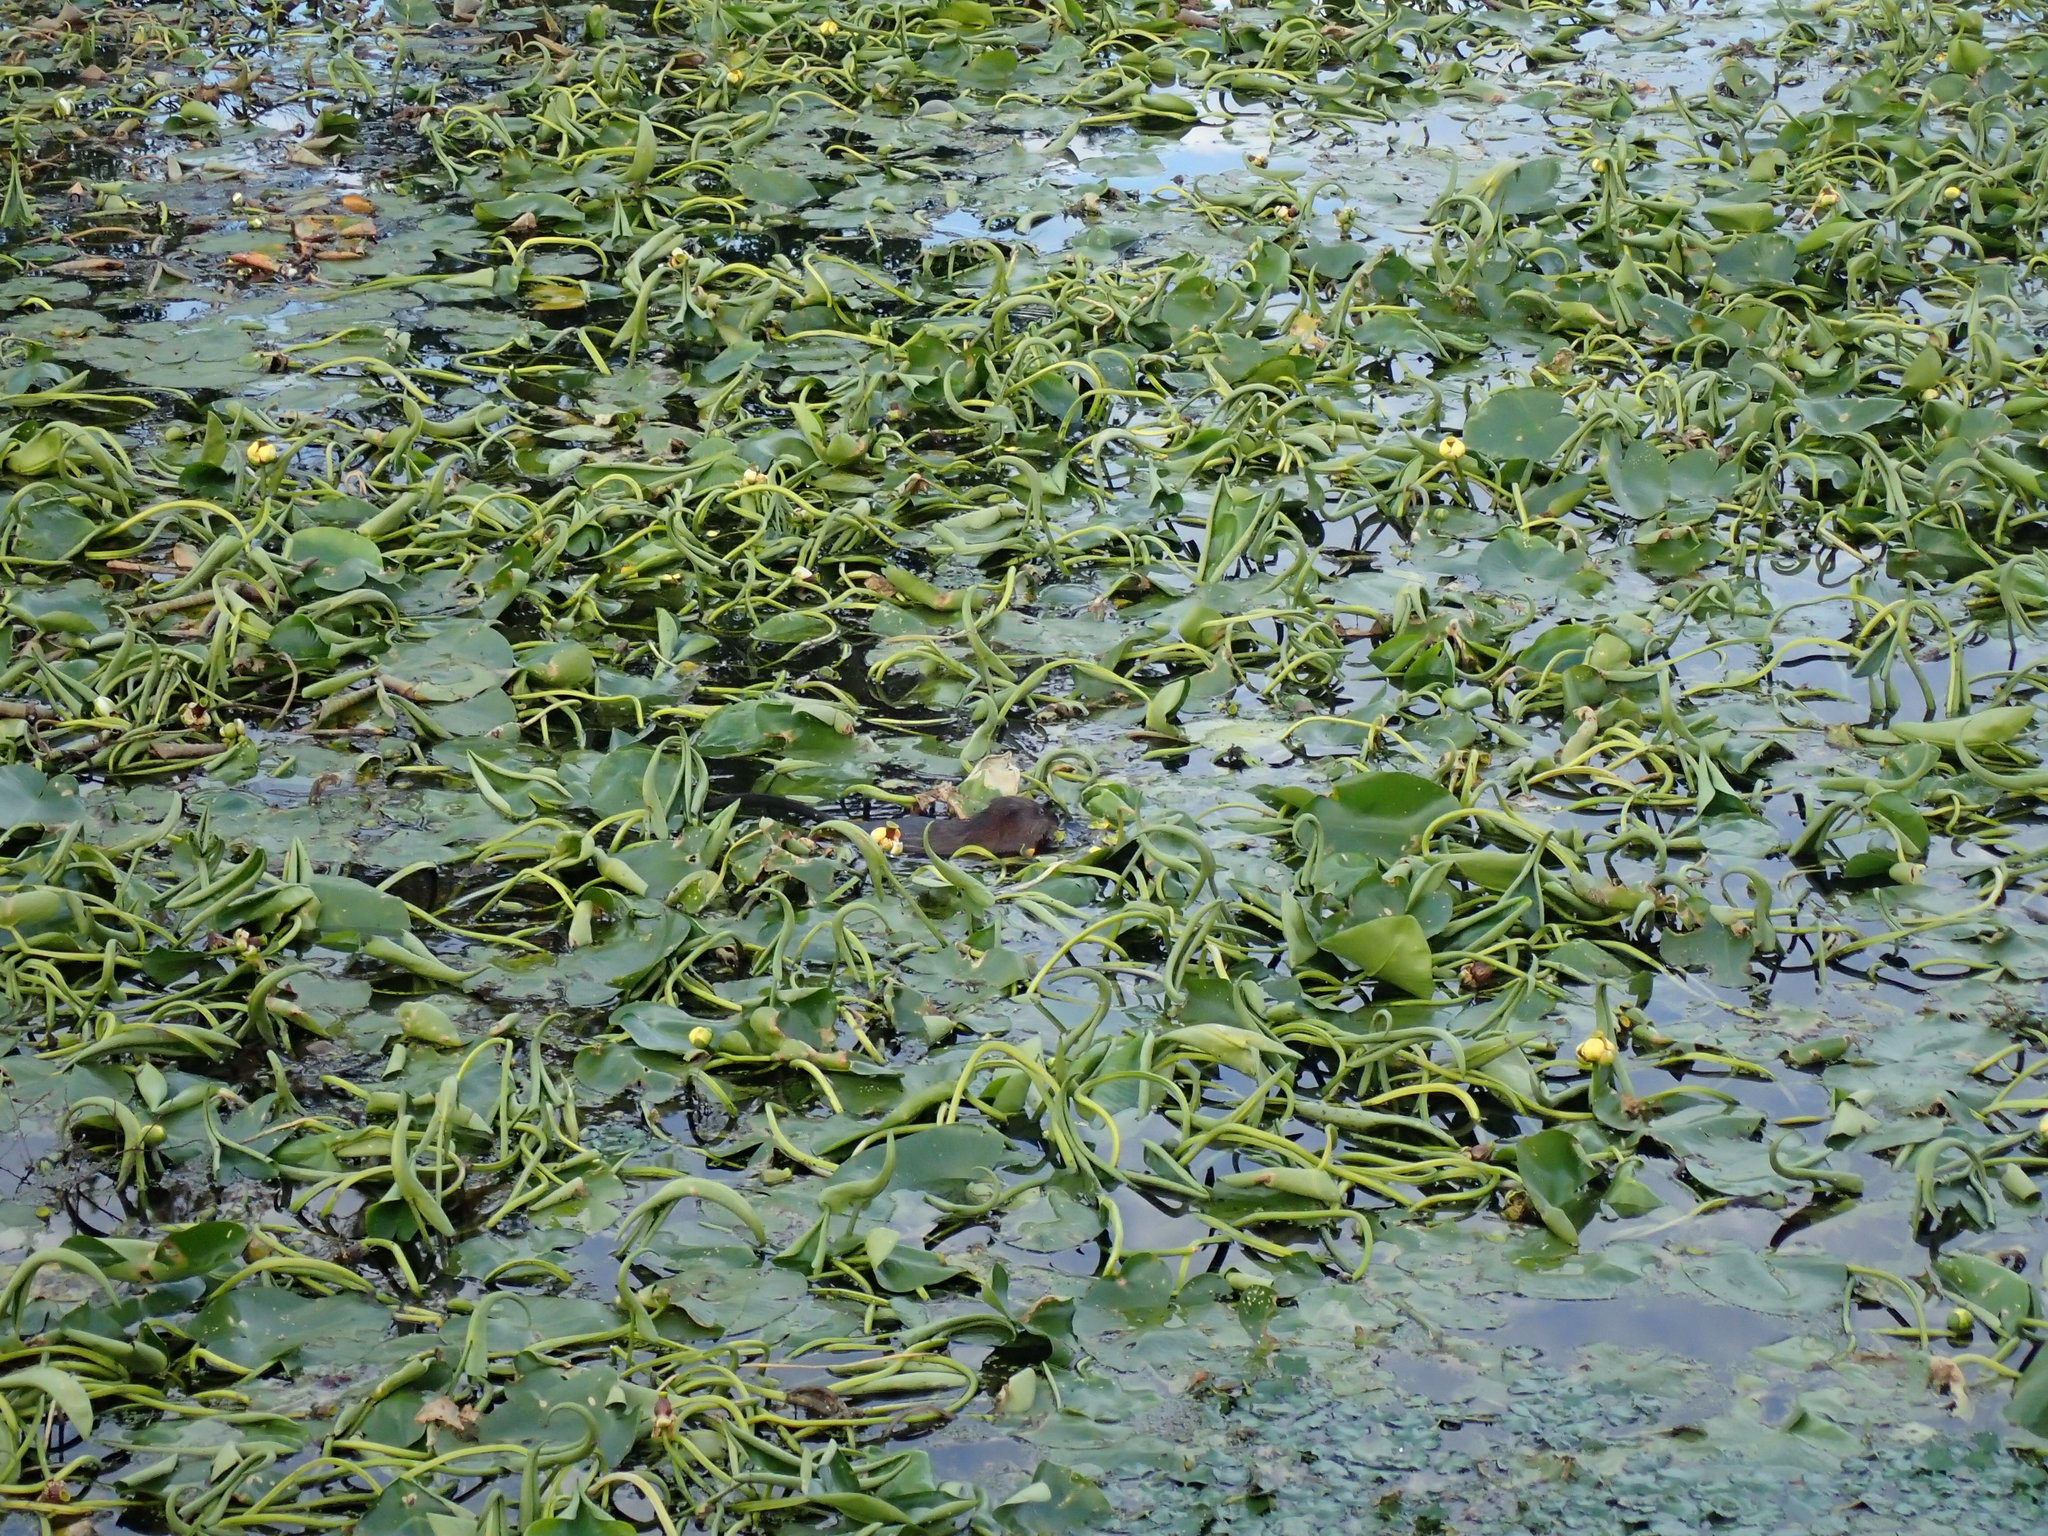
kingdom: Animalia
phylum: Chordata
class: Mammalia
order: Rodentia
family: Cricetidae
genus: Ondatra
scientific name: Ondatra zibethicus
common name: Muskrat
